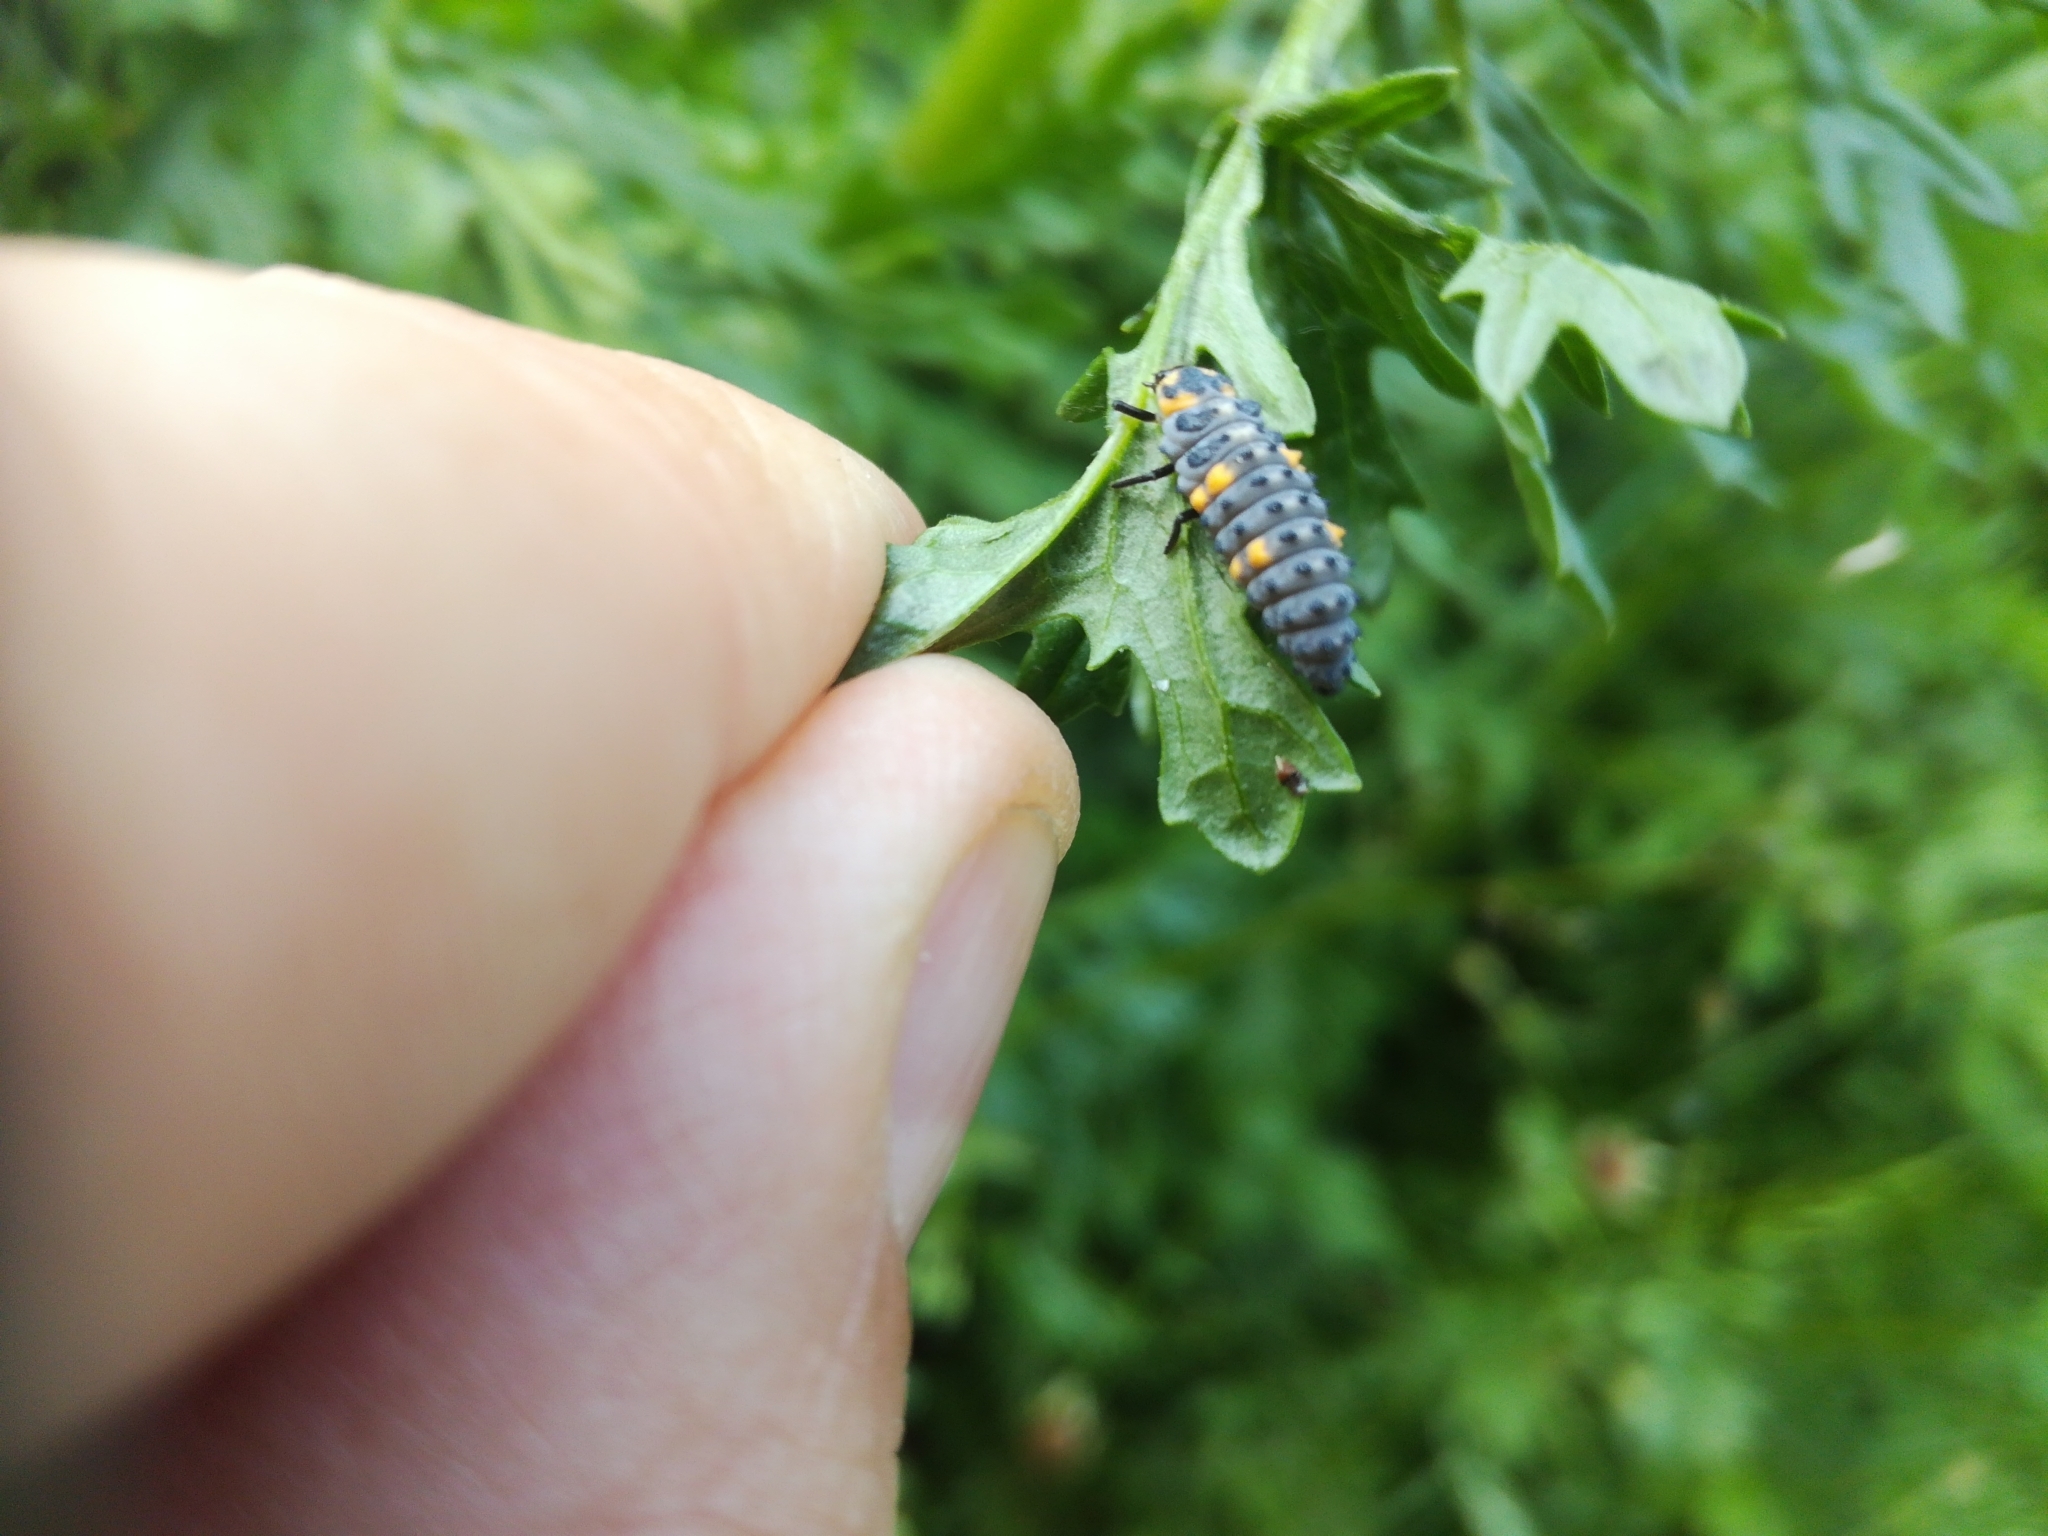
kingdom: Animalia
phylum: Arthropoda
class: Insecta
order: Coleoptera
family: Coccinellidae
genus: Coccinella
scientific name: Coccinella septempunctata
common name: Sevenspotted lady beetle
